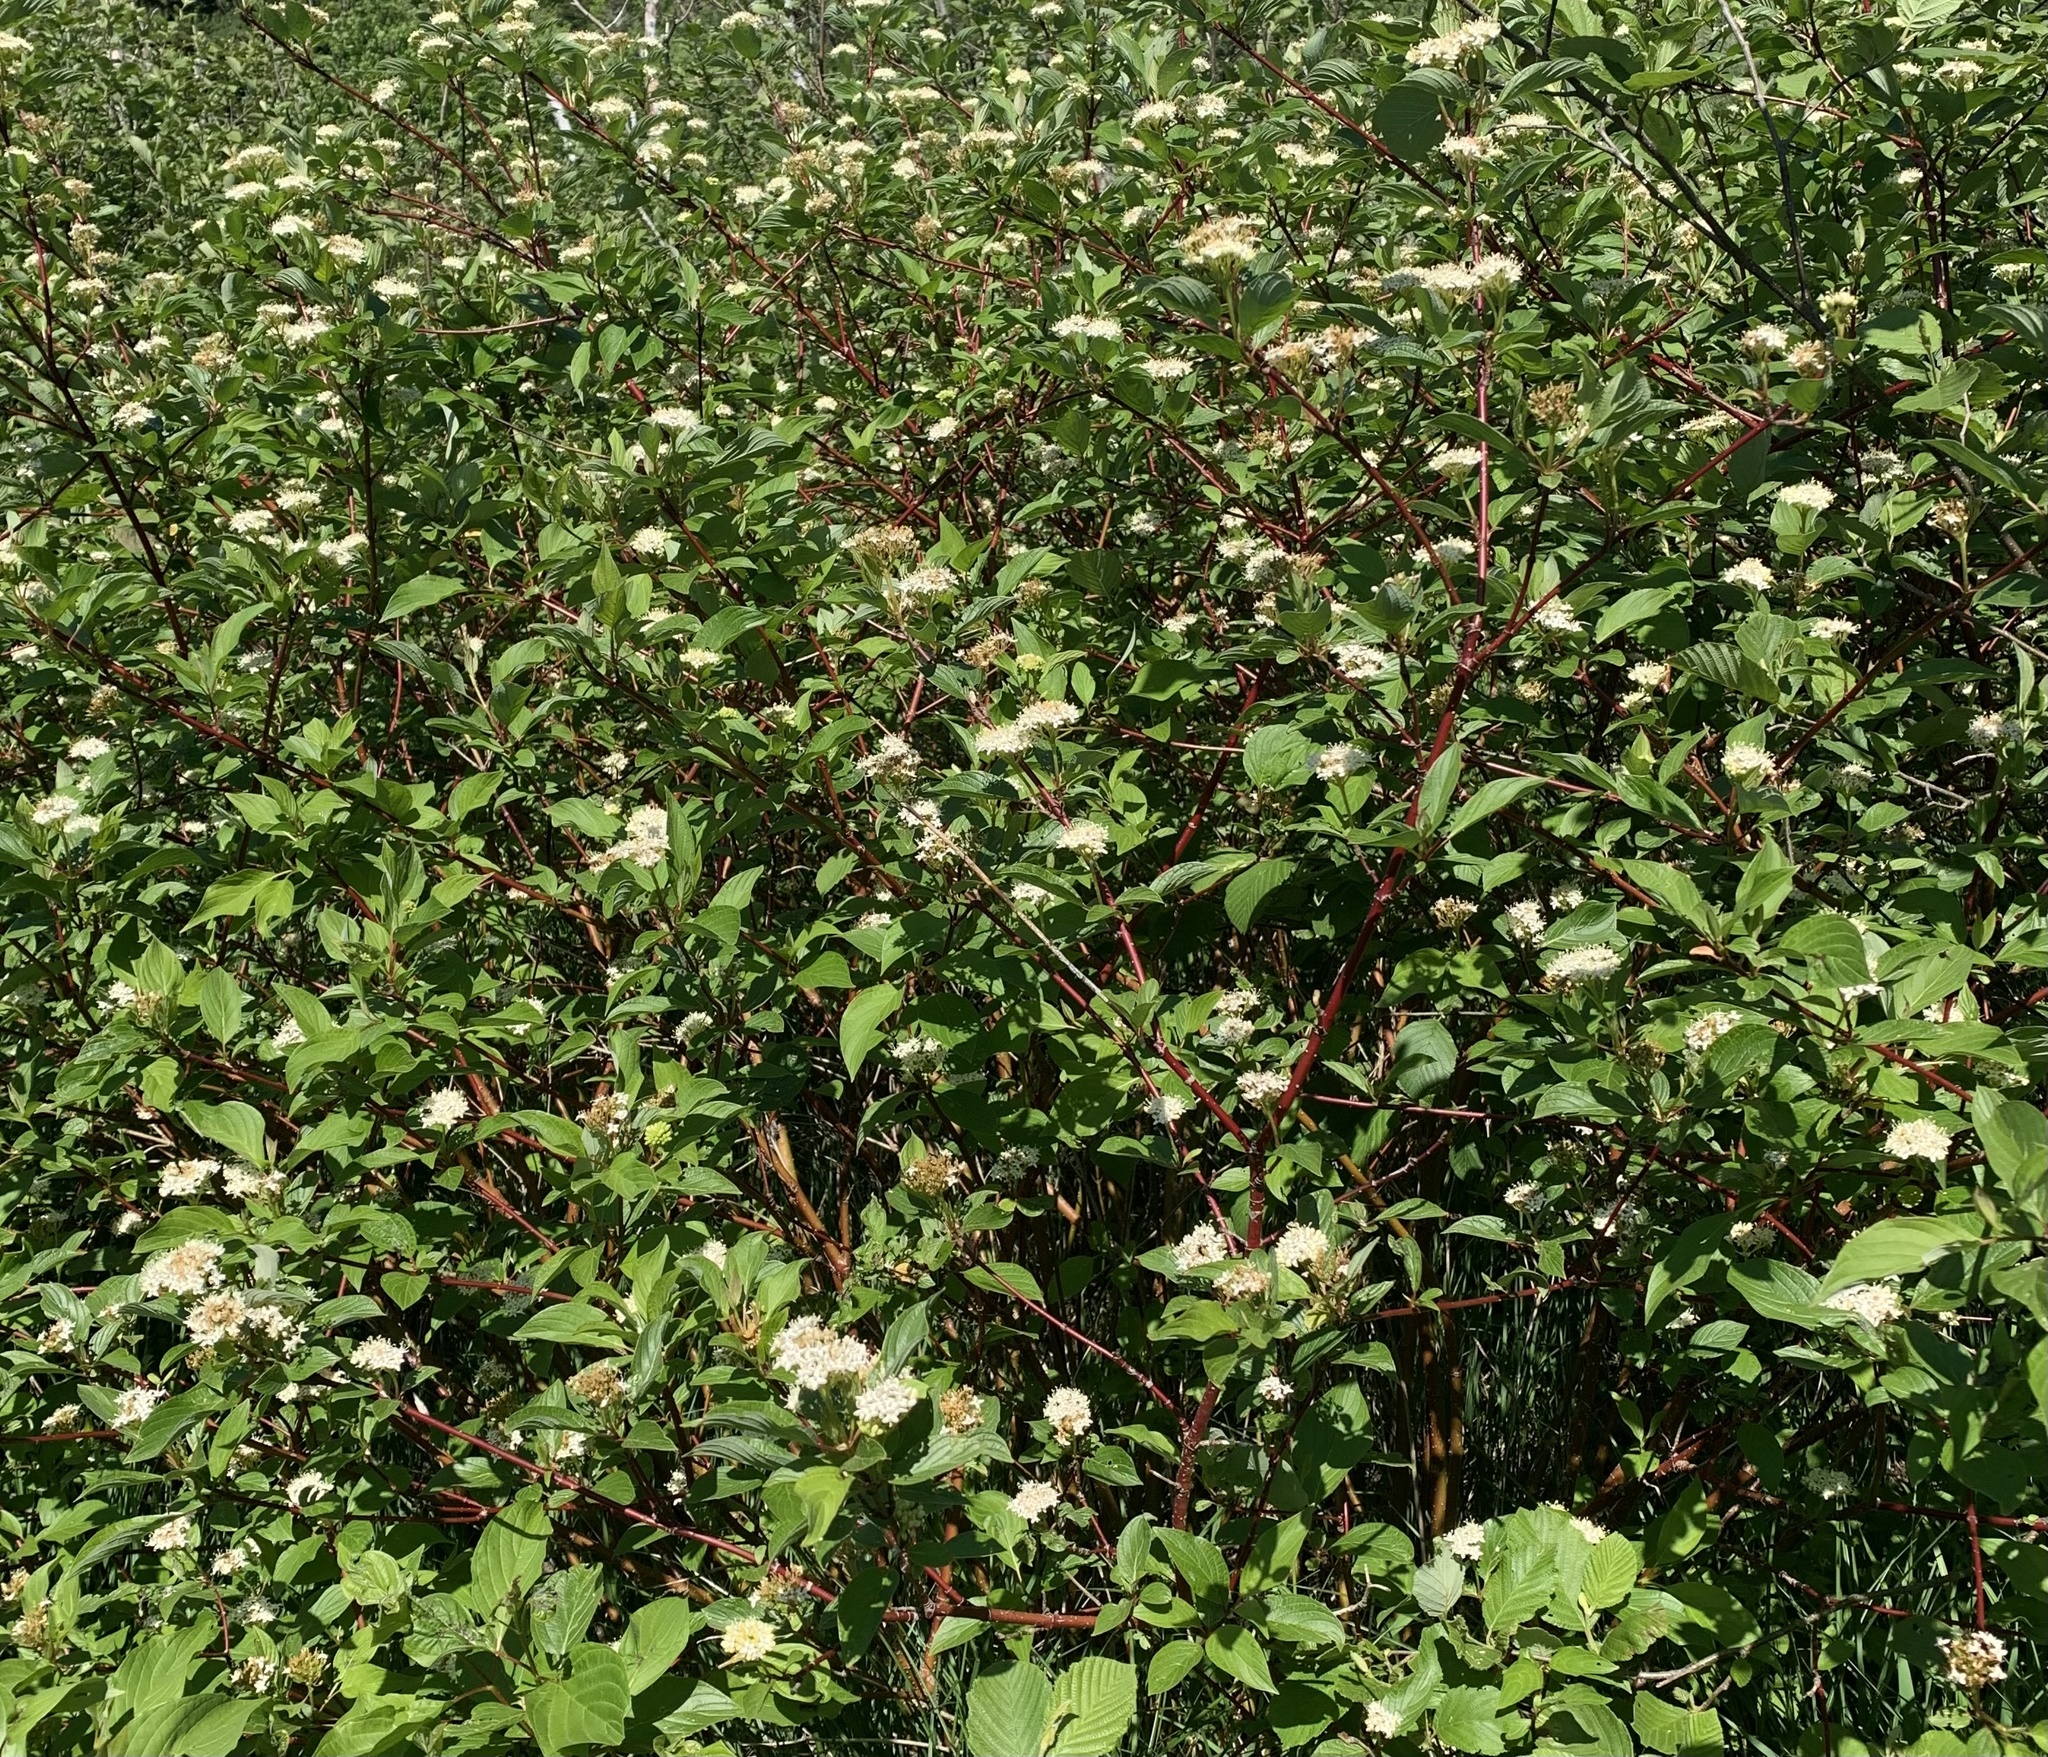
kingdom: Plantae
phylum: Tracheophyta
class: Magnoliopsida
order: Cornales
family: Cornaceae
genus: Cornus
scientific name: Cornus sericea
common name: Red-osier dogwood
